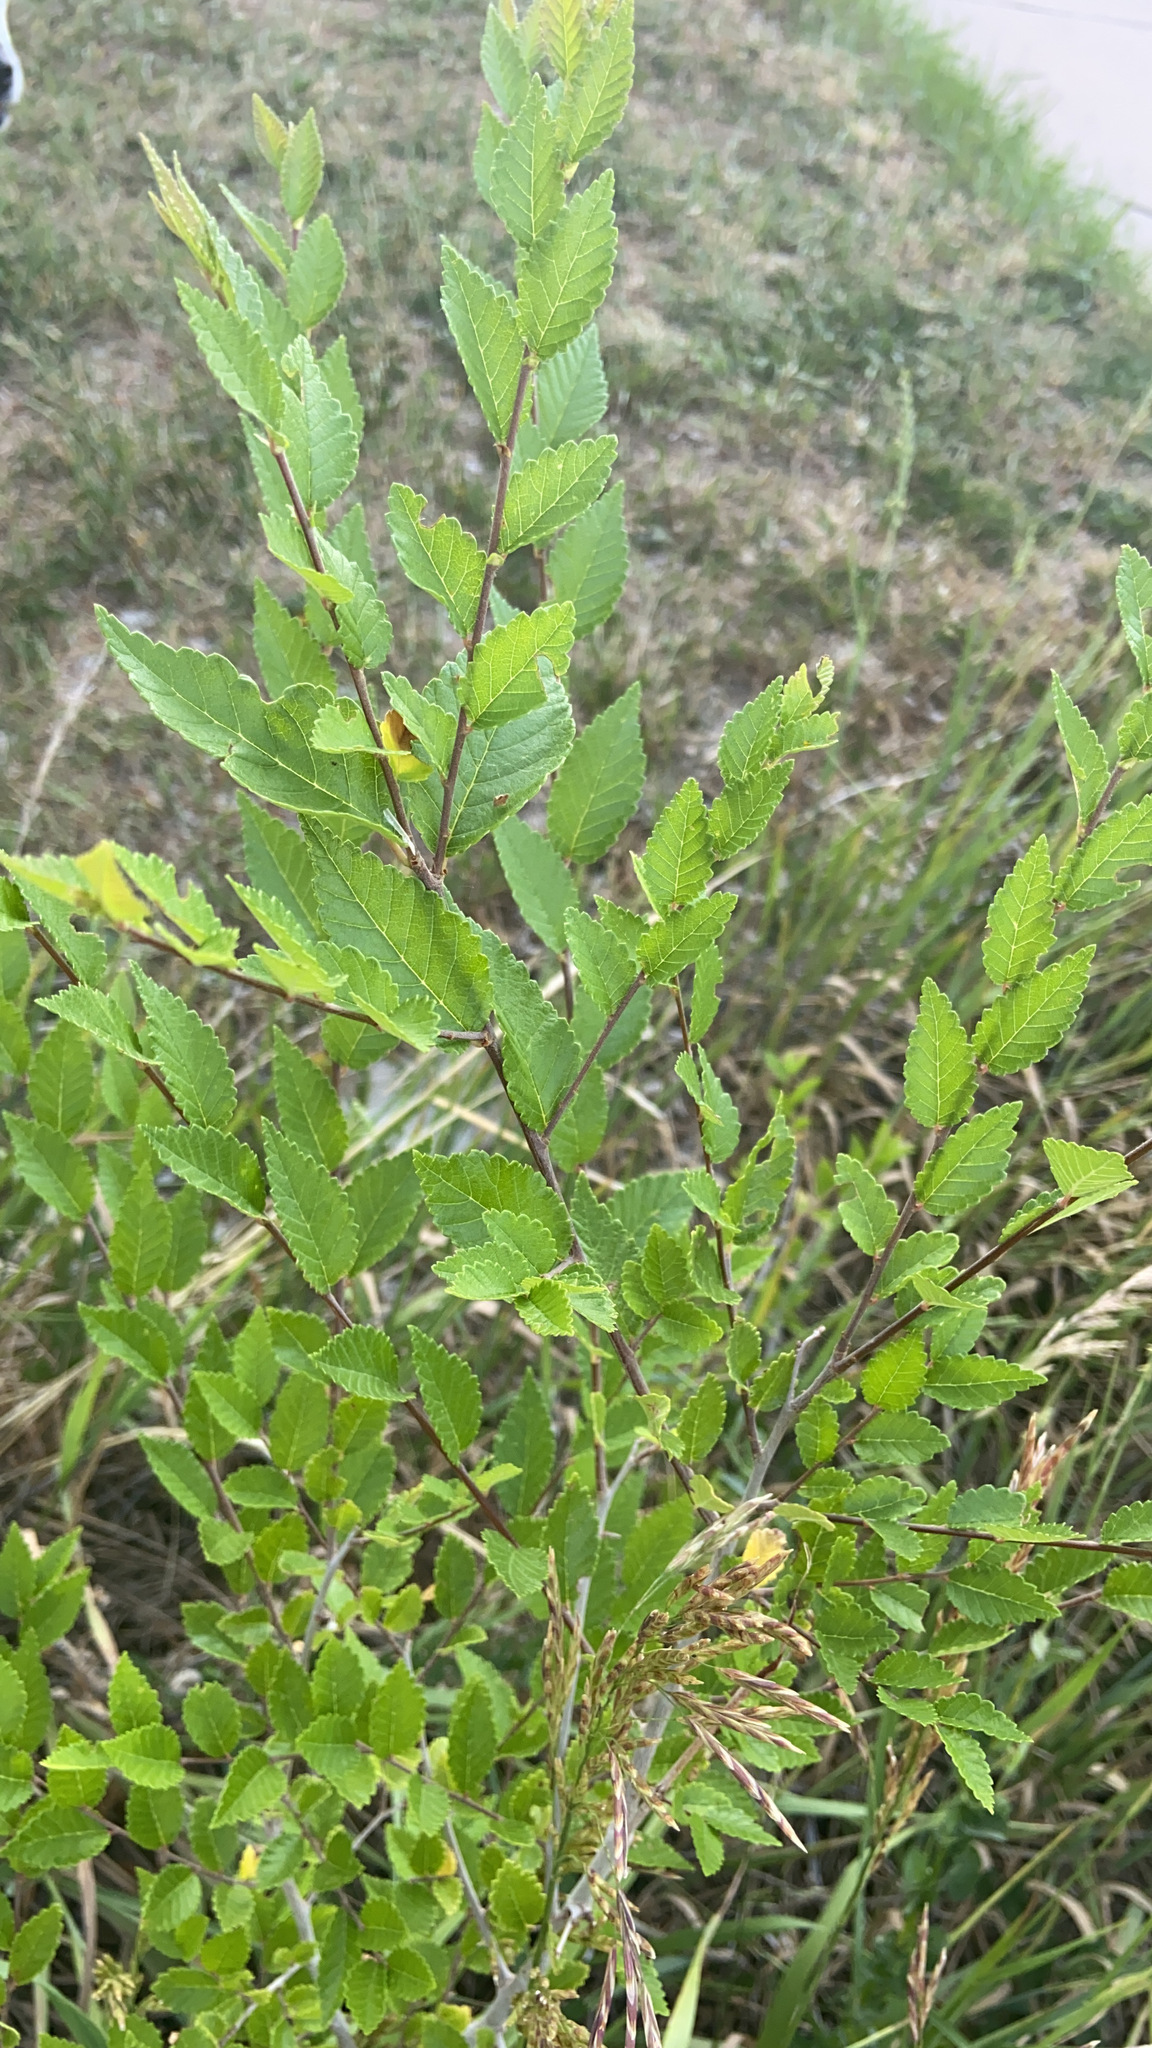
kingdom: Plantae
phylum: Tracheophyta
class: Magnoliopsida
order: Rosales
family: Ulmaceae
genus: Ulmus
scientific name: Ulmus pumila
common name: Siberian elm
